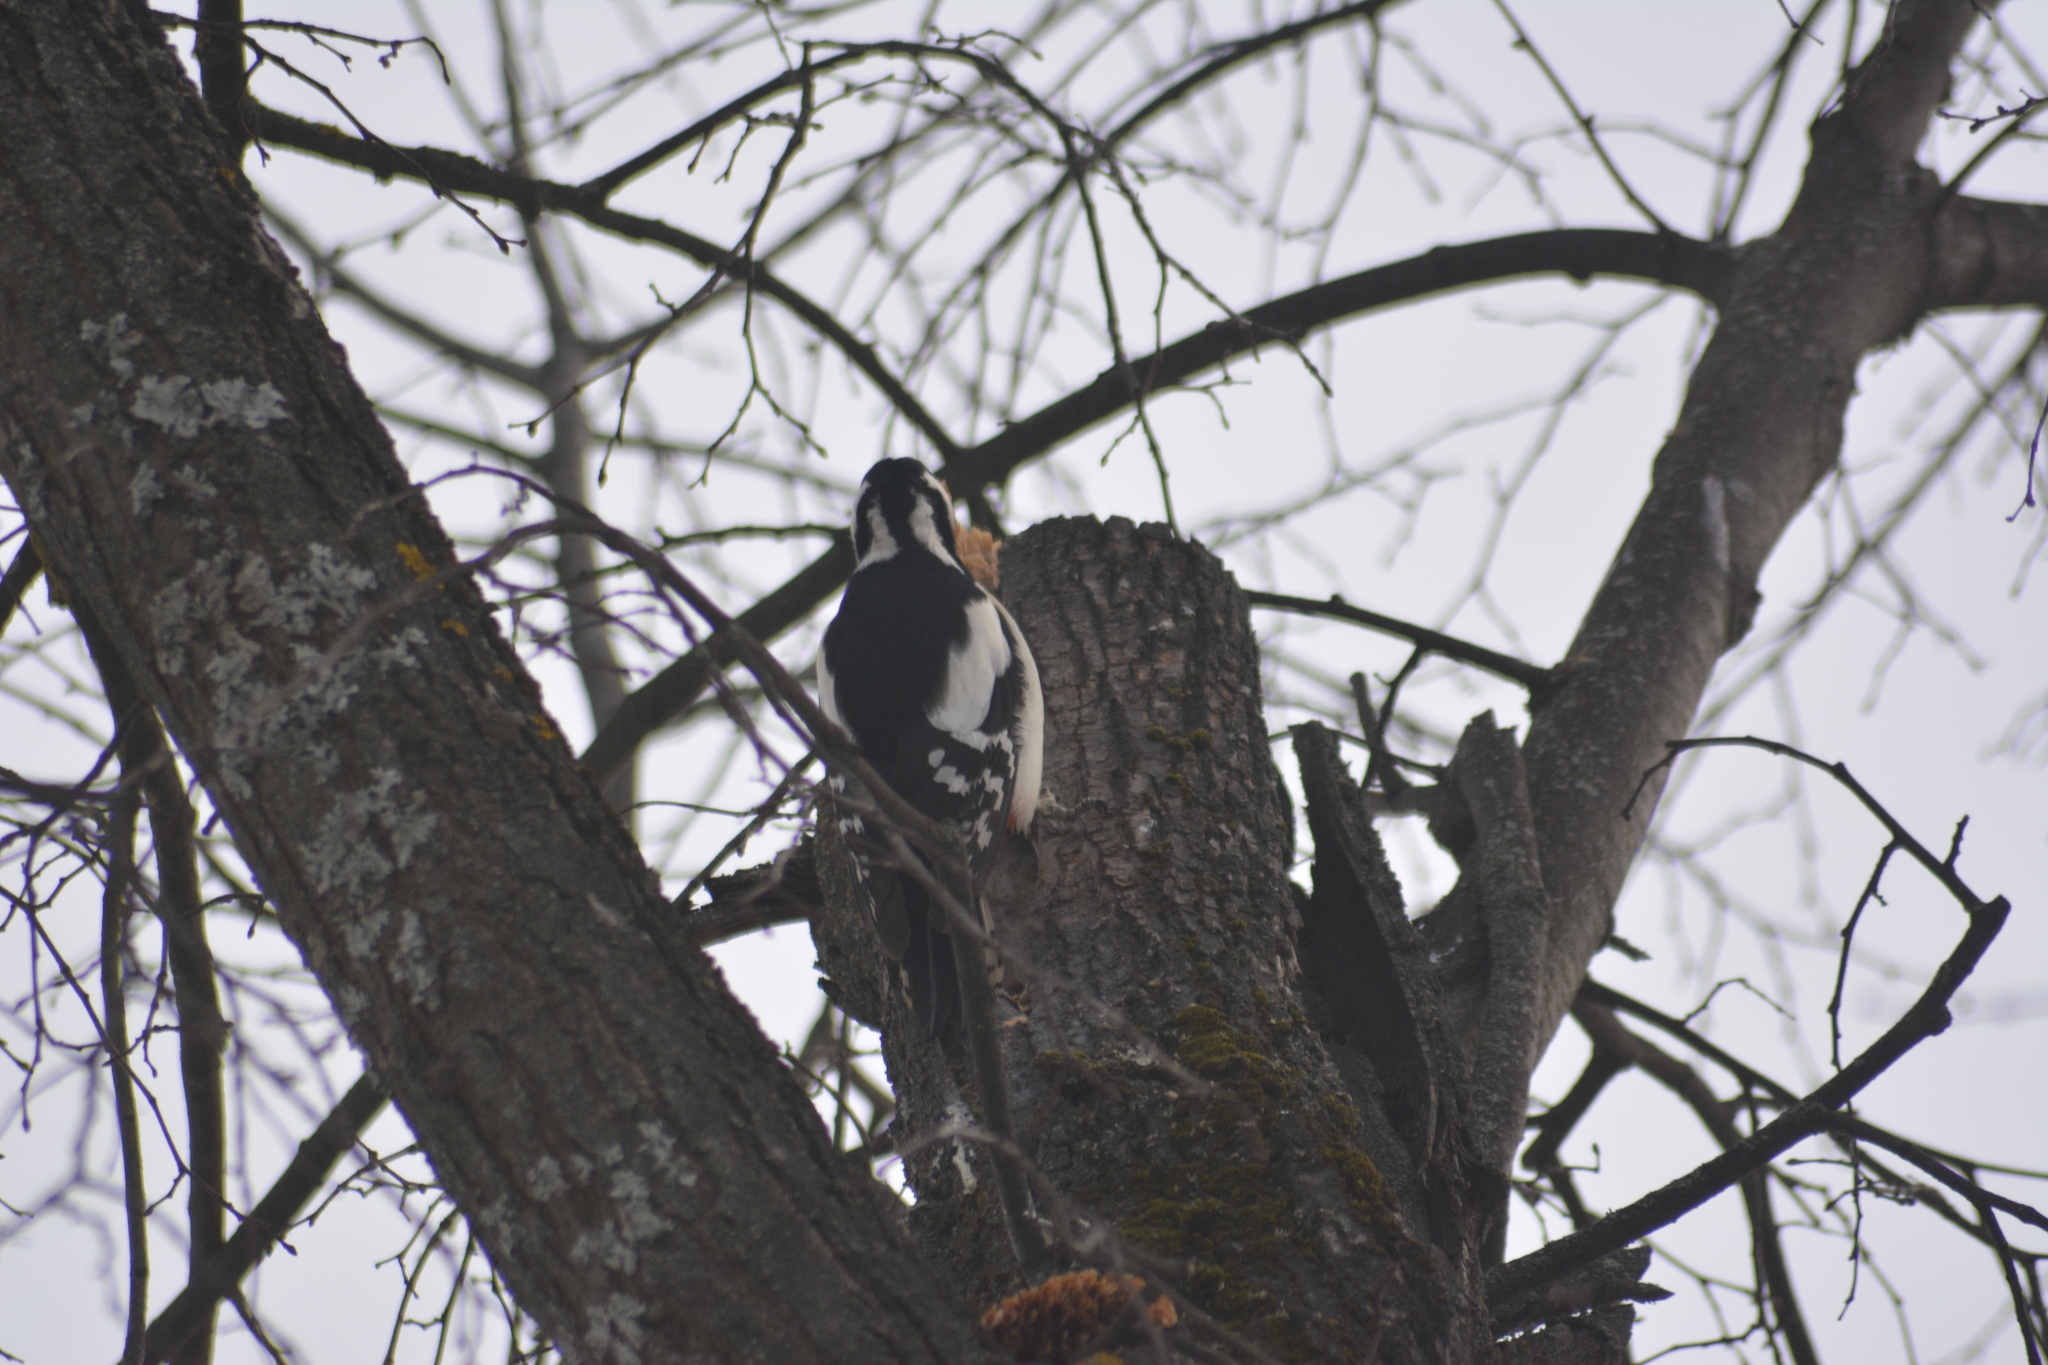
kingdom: Animalia
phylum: Chordata
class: Aves
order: Piciformes
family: Picidae
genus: Dendrocopos
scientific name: Dendrocopos major
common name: Great spotted woodpecker
